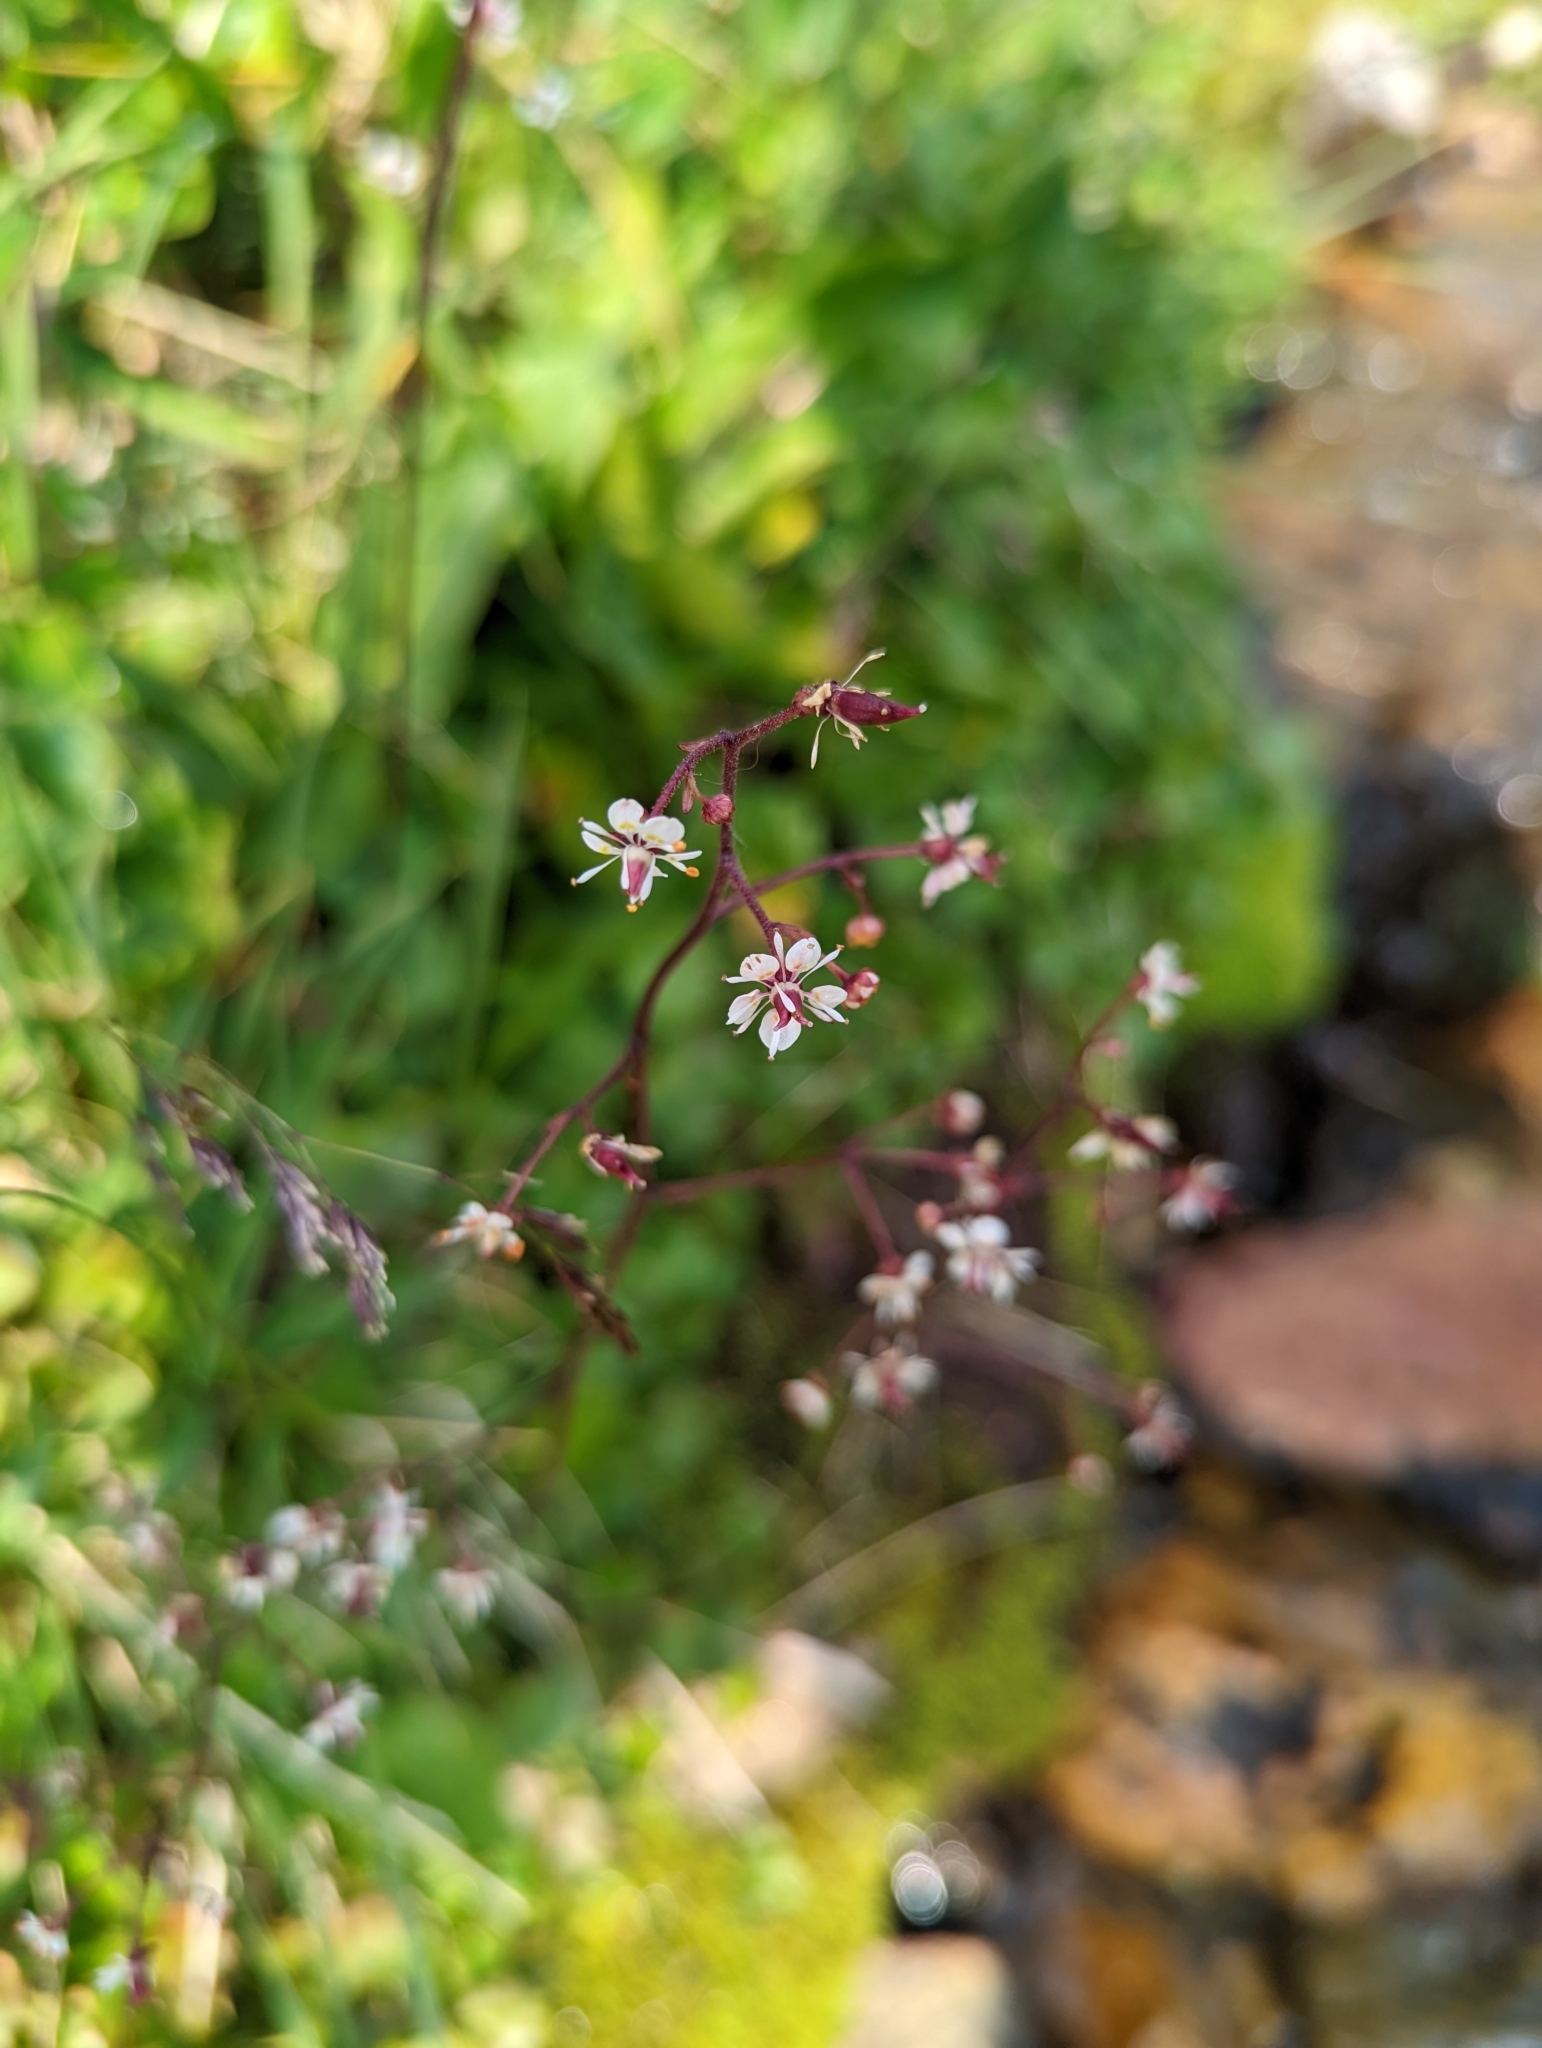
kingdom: Plantae
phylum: Tracheophyta
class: Magnoliopsida
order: Saxifragales
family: Saxifragaceae
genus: Micranthes
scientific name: Micranthes odontoloma
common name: Brook saxifrage
